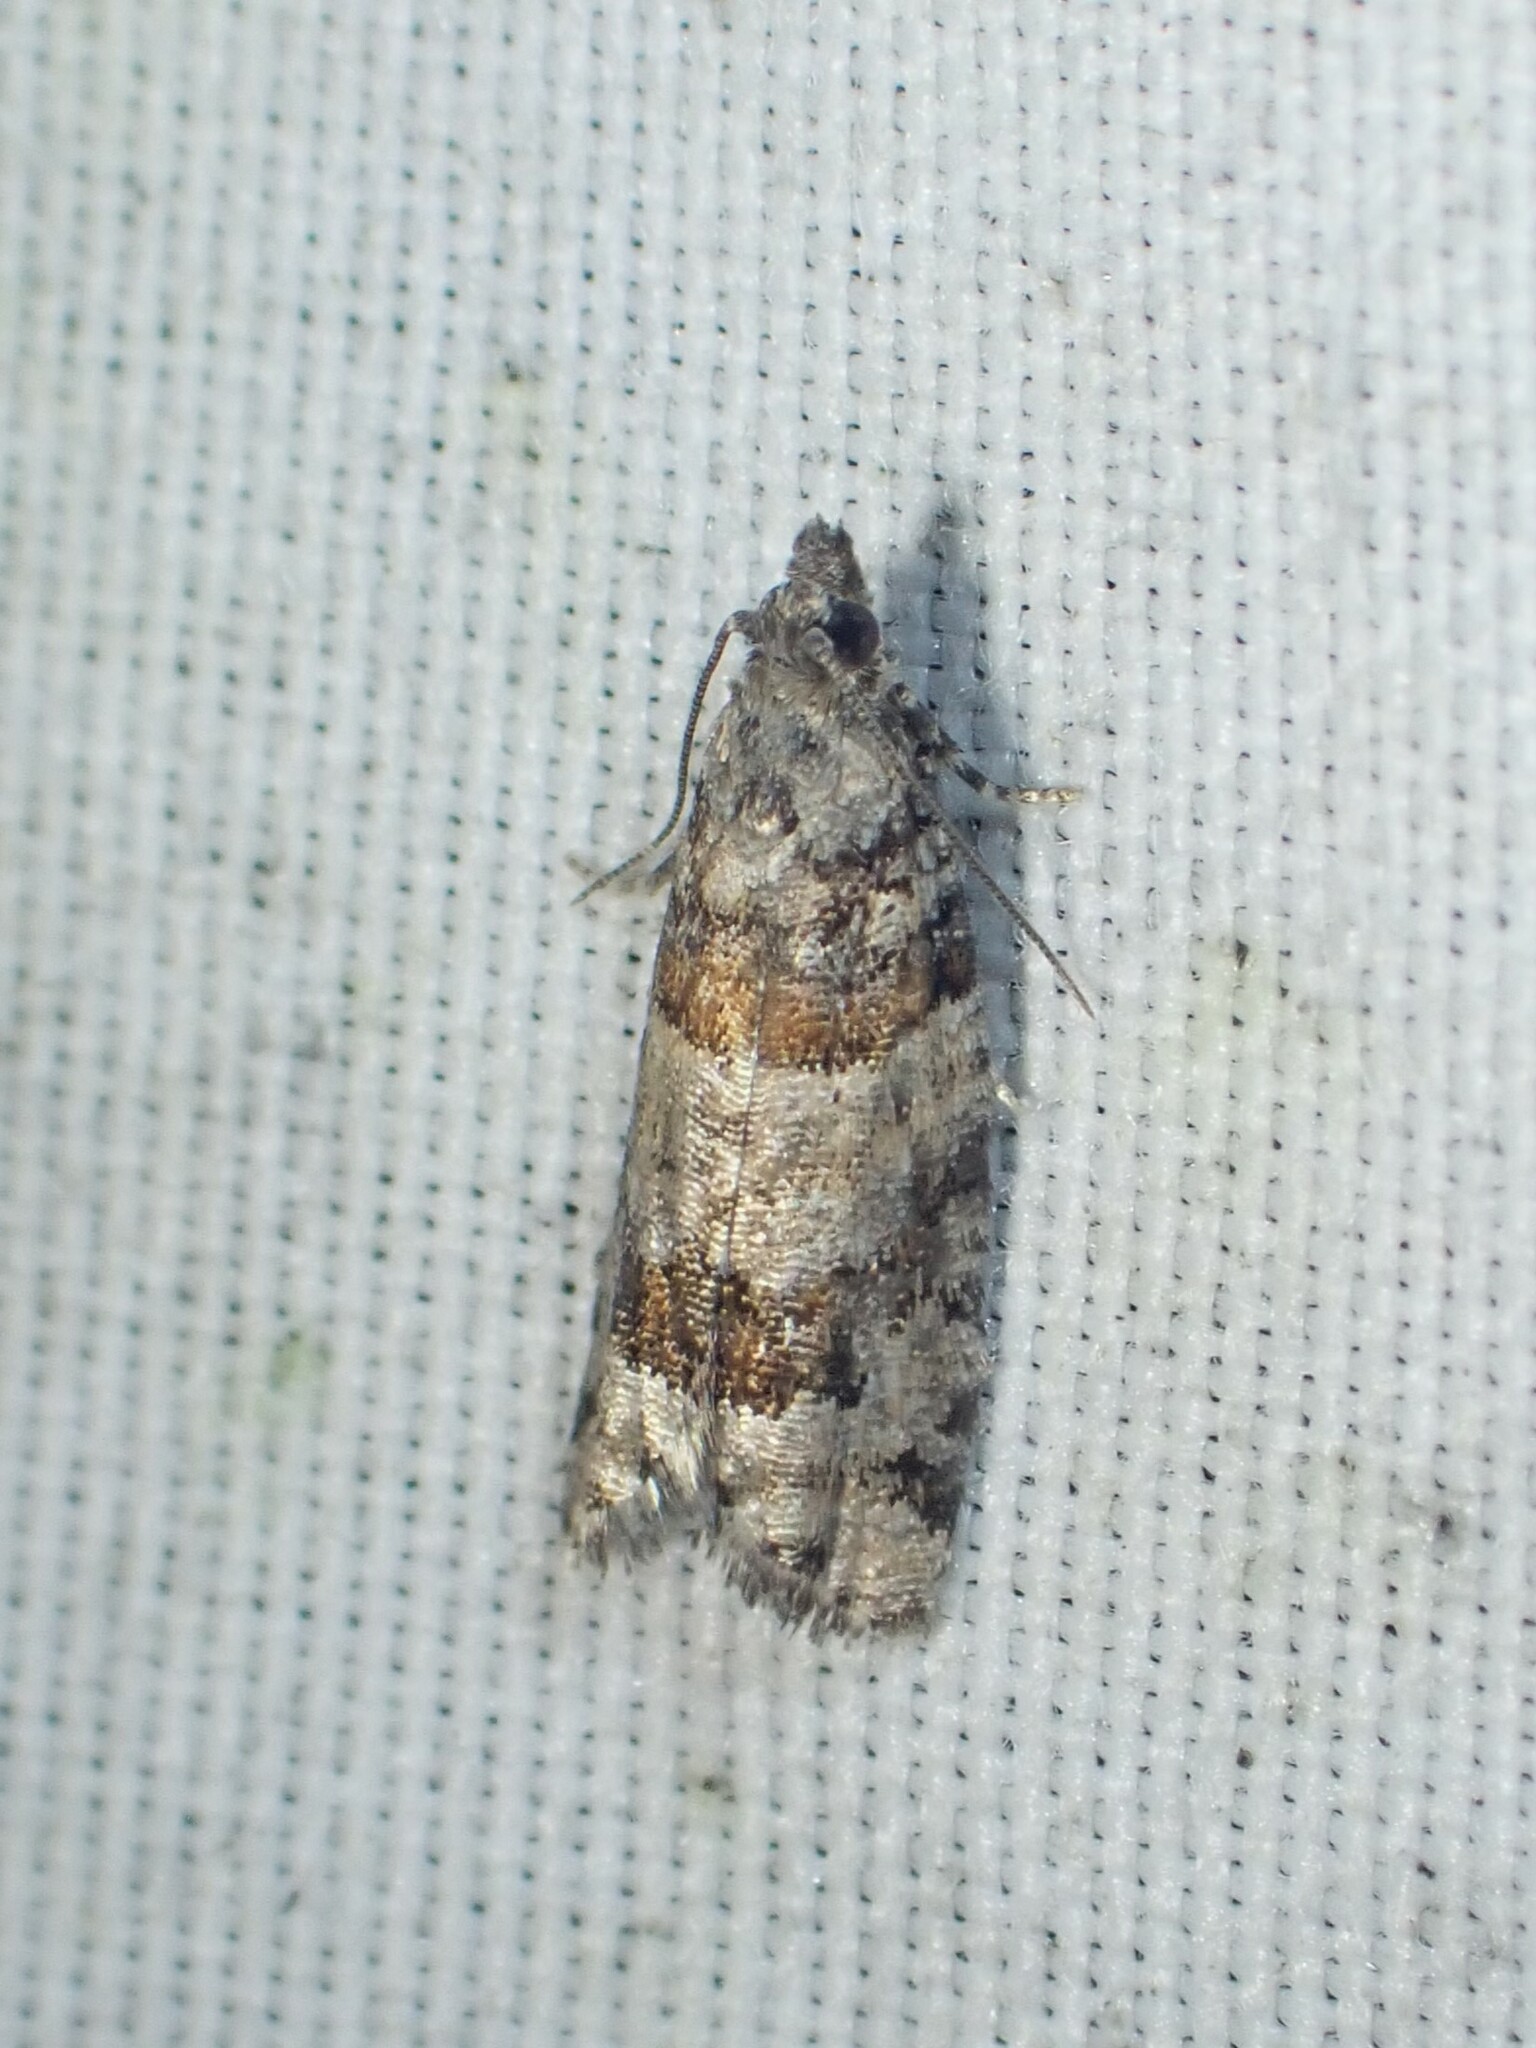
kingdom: Animalia
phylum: Arthropoda
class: Insecta
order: Lepidoptera
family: Tortricidae
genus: Epinotia
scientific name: Epinotia radicana
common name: Red-striped needleworm moth
